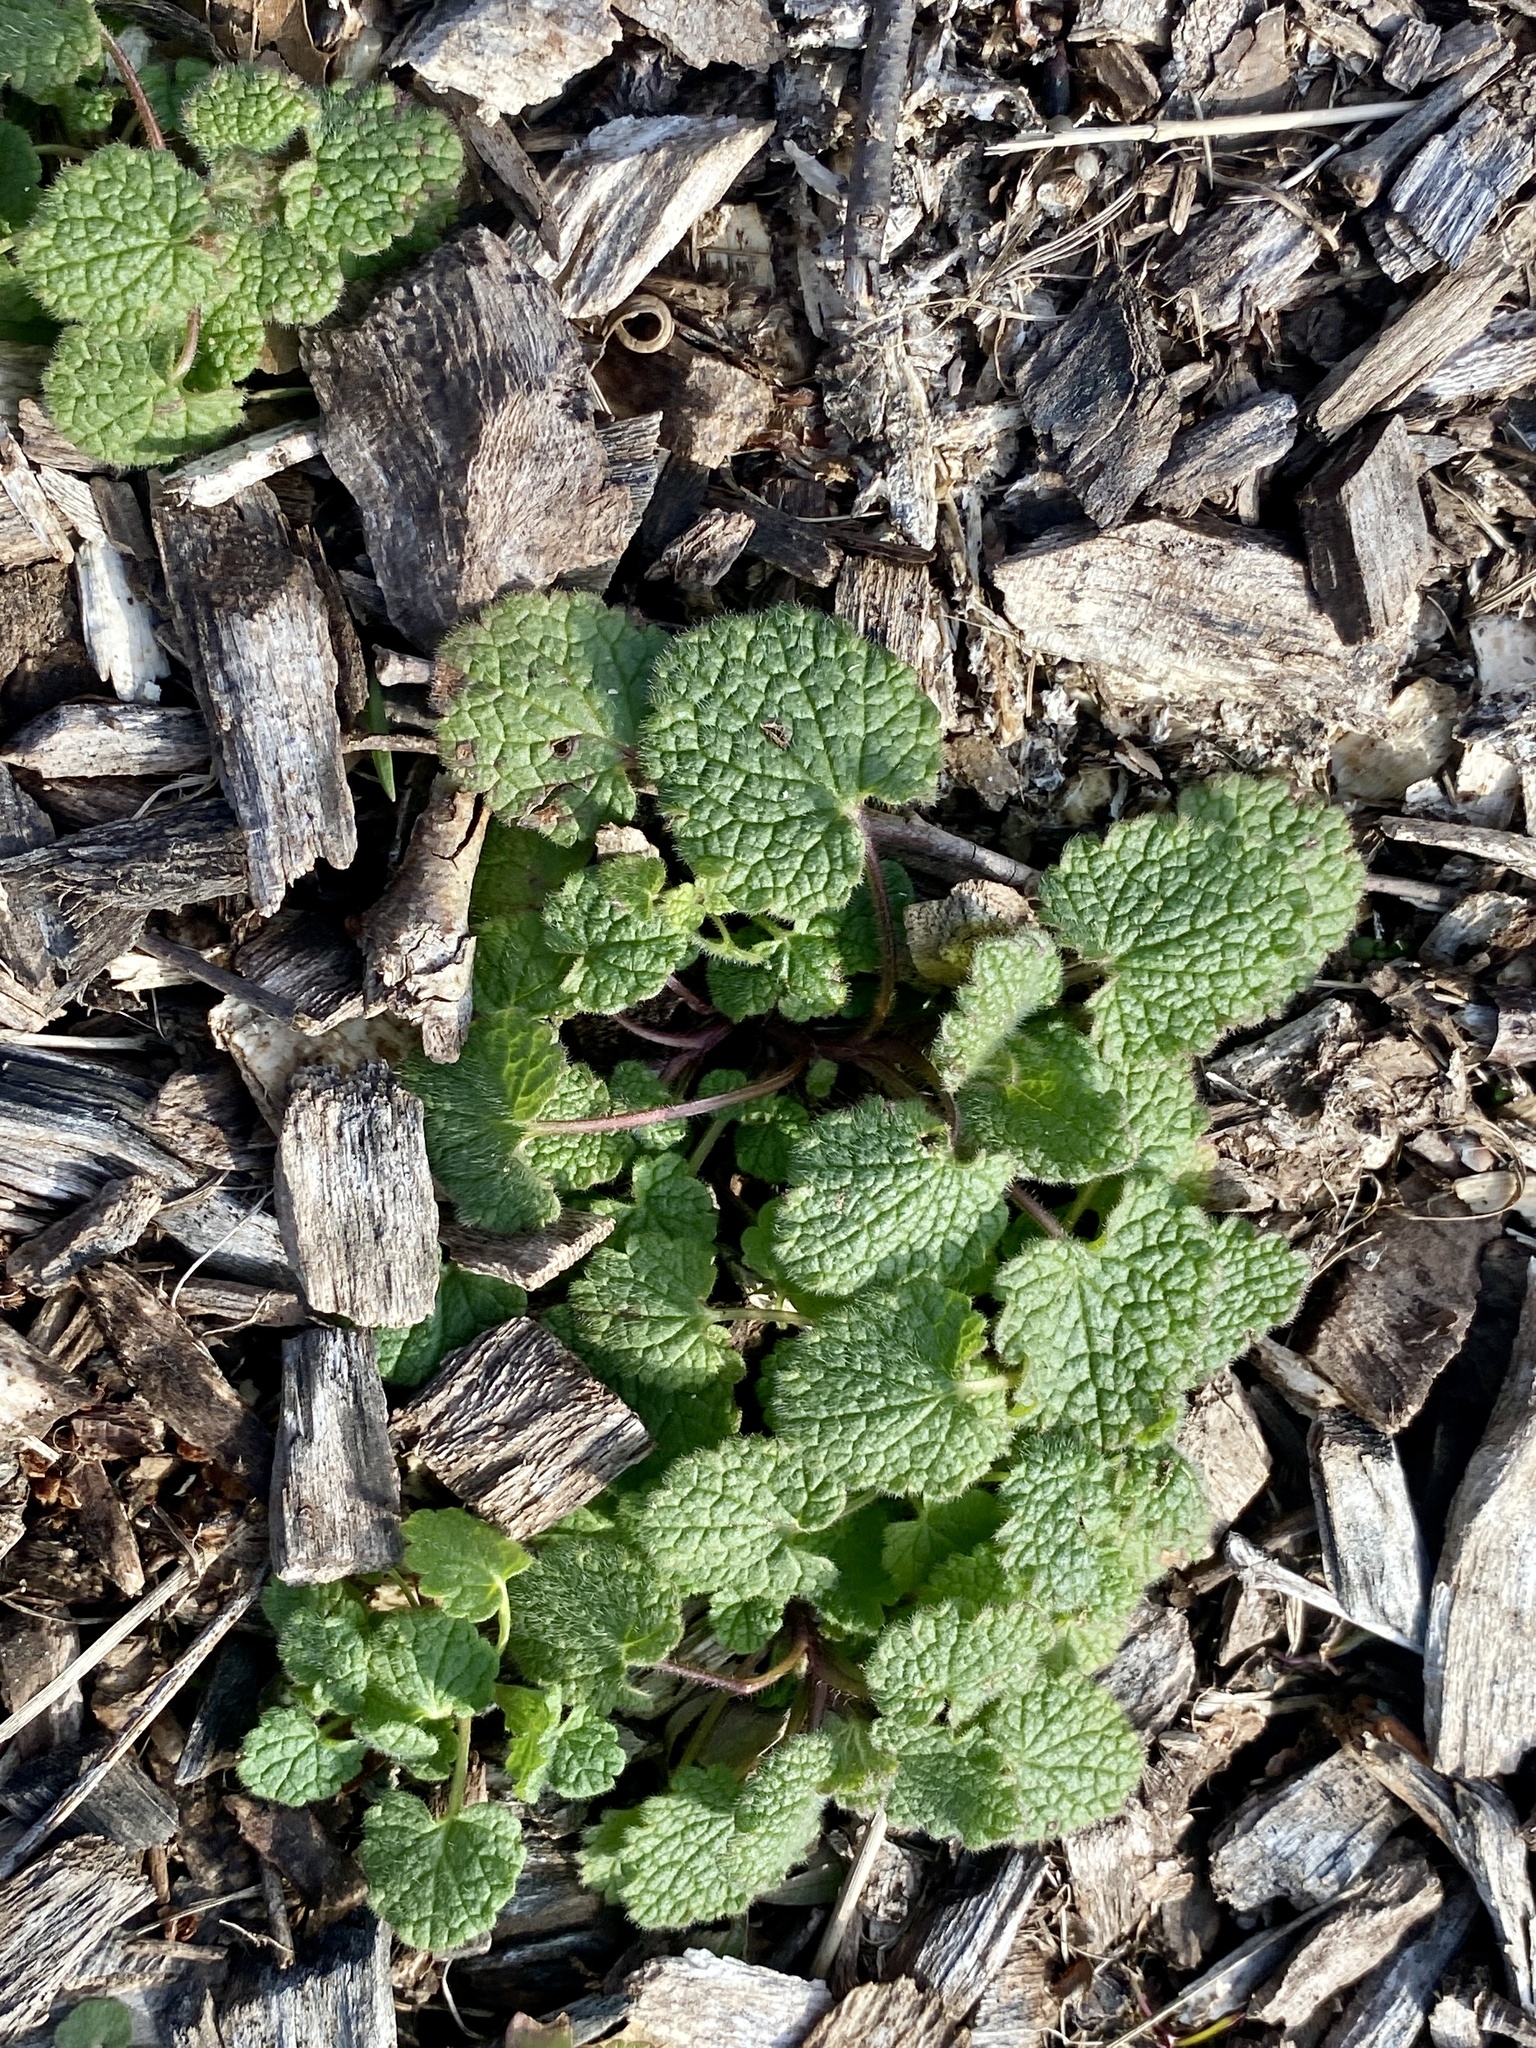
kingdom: Plantae
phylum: Tracheophyta
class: Magnoliopsida
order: Lamiales
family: Lamiaceae
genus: Lamium
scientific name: Lamium purpureum
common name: Red dead-nettle
